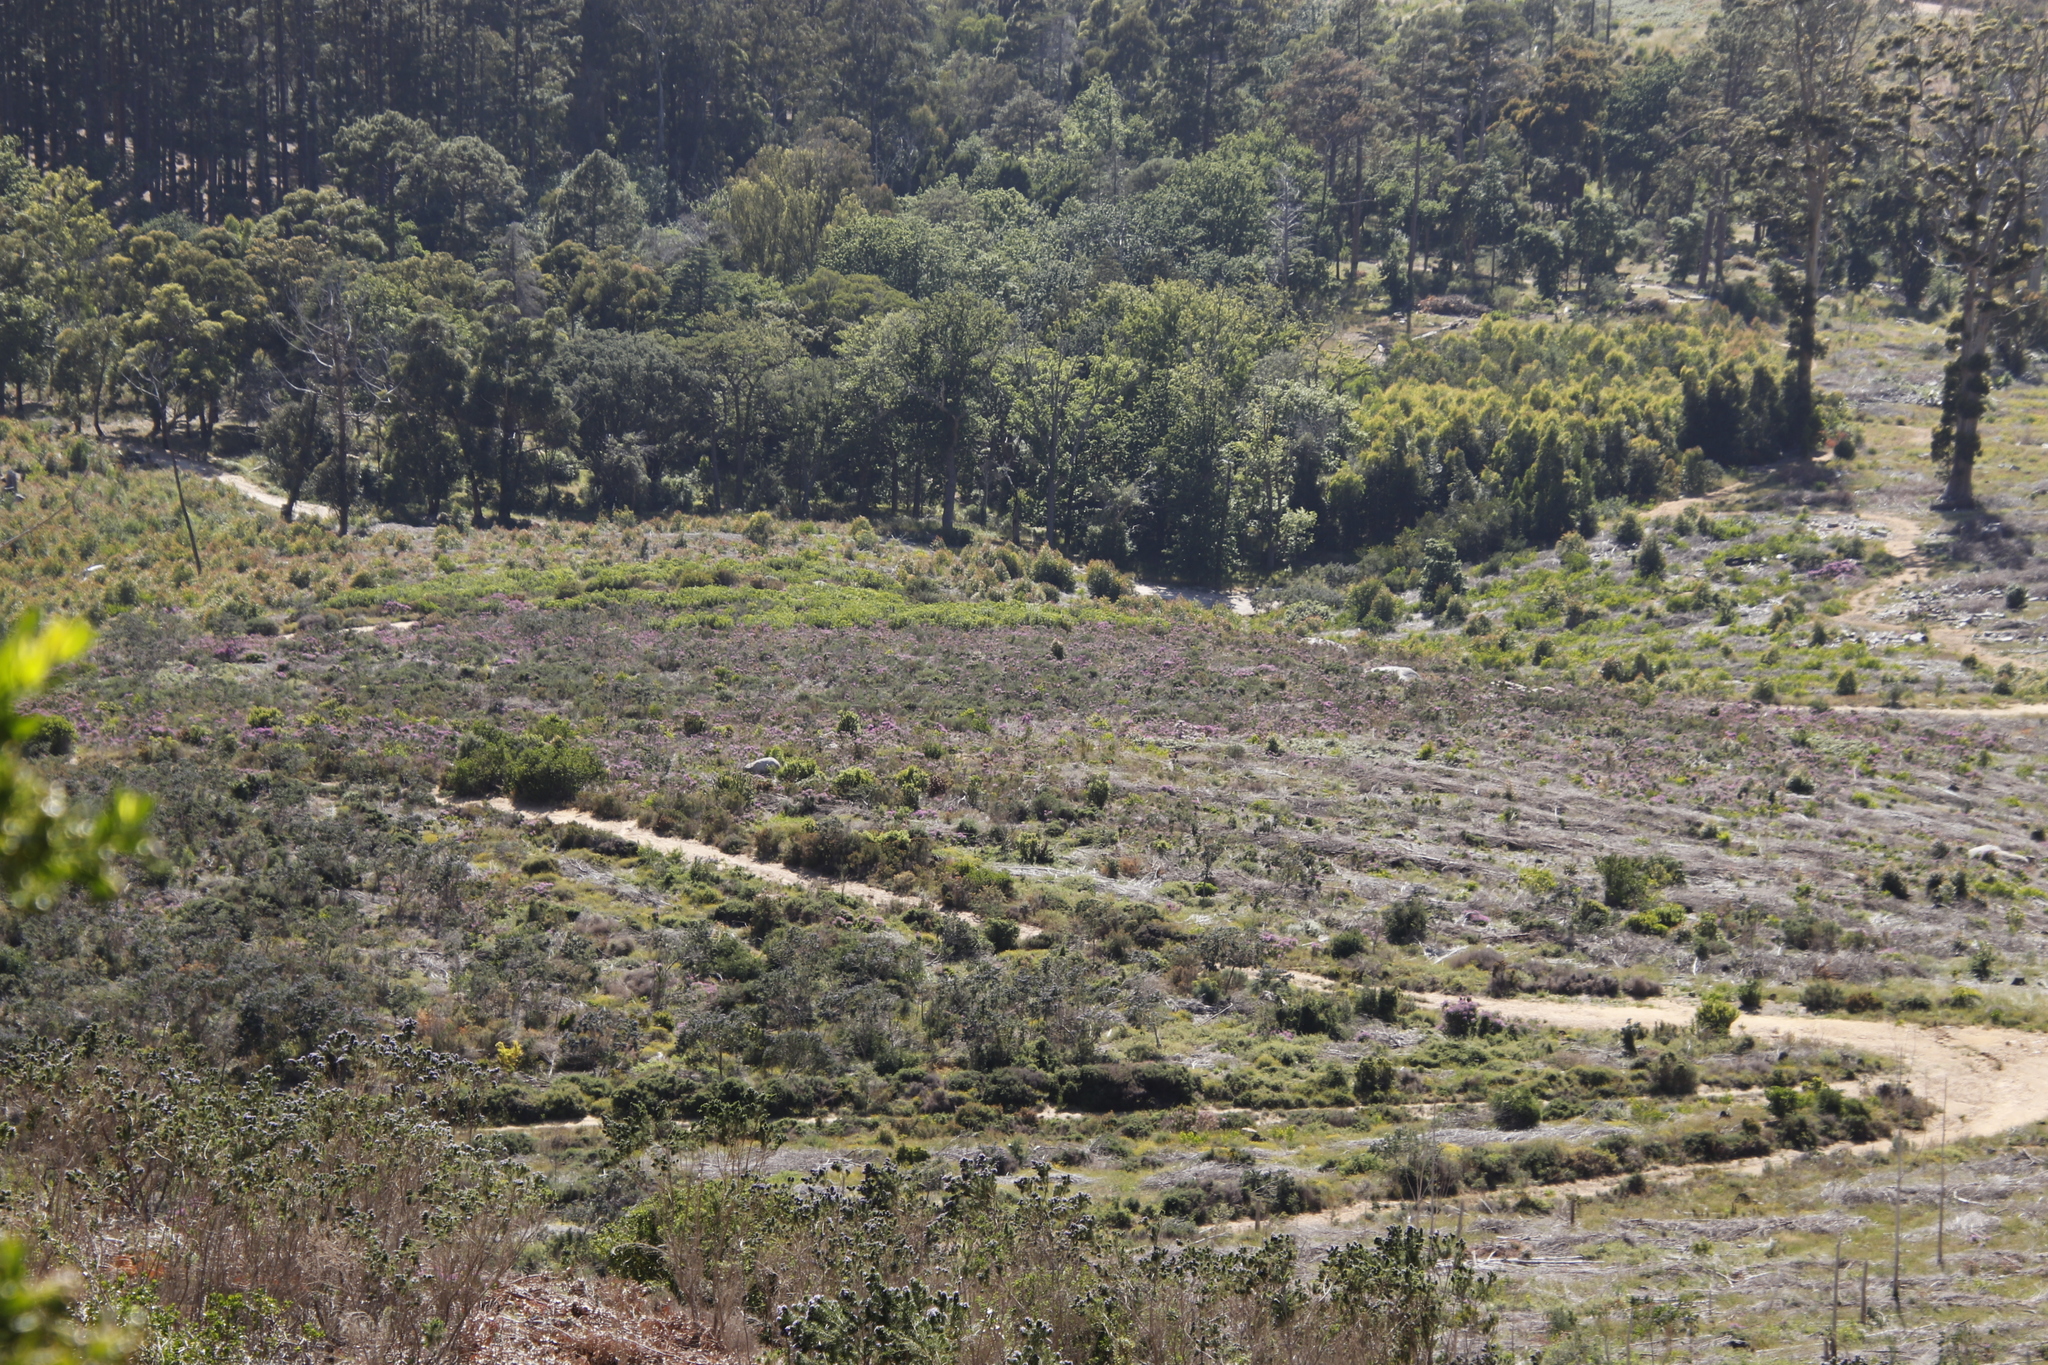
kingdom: Plantae
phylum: Tracheophyta
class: Magnoliopsida
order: Proteales
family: Proteaceae
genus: Protea
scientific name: Protea repens
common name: Sugarbush
